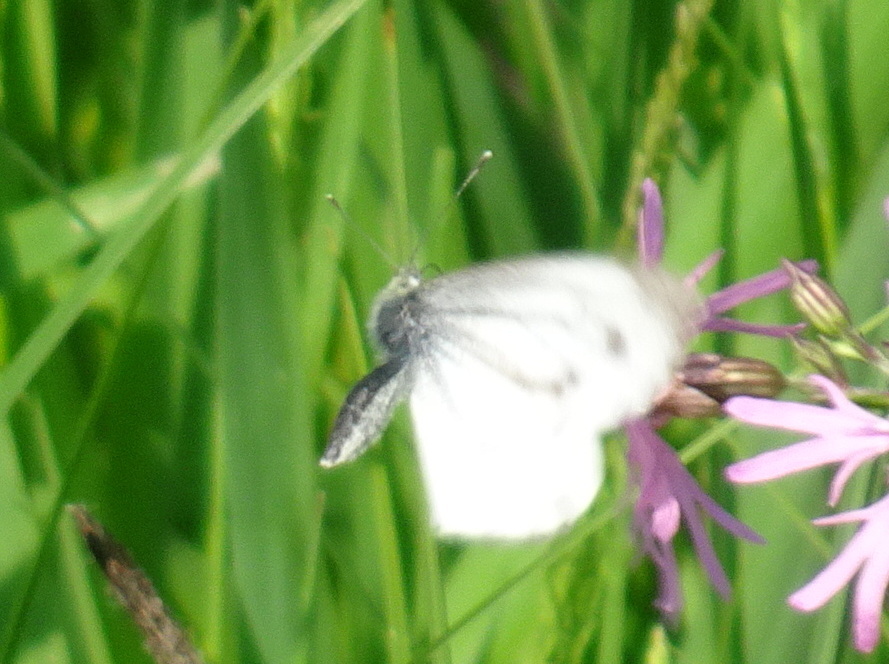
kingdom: Animalia
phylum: Arthropoda
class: Insecta
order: Lepidoptera
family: Pieridae
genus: Pieris
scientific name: Pieris napi
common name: Green-veined white
